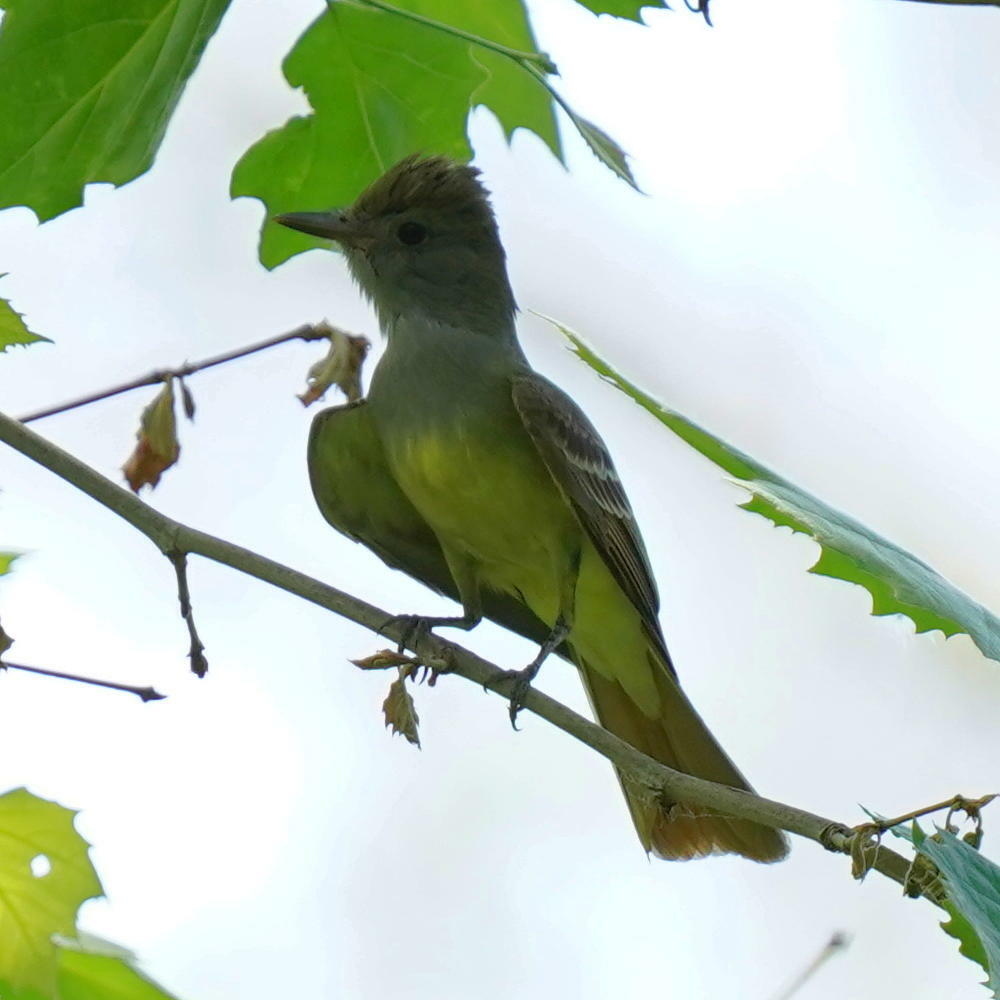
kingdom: Animalia
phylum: Chordata
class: Aves
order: Passeriformes
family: Tyrannidae
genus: Myiarchus
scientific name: Myiarchus crinitus
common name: Great crested flycatcher
